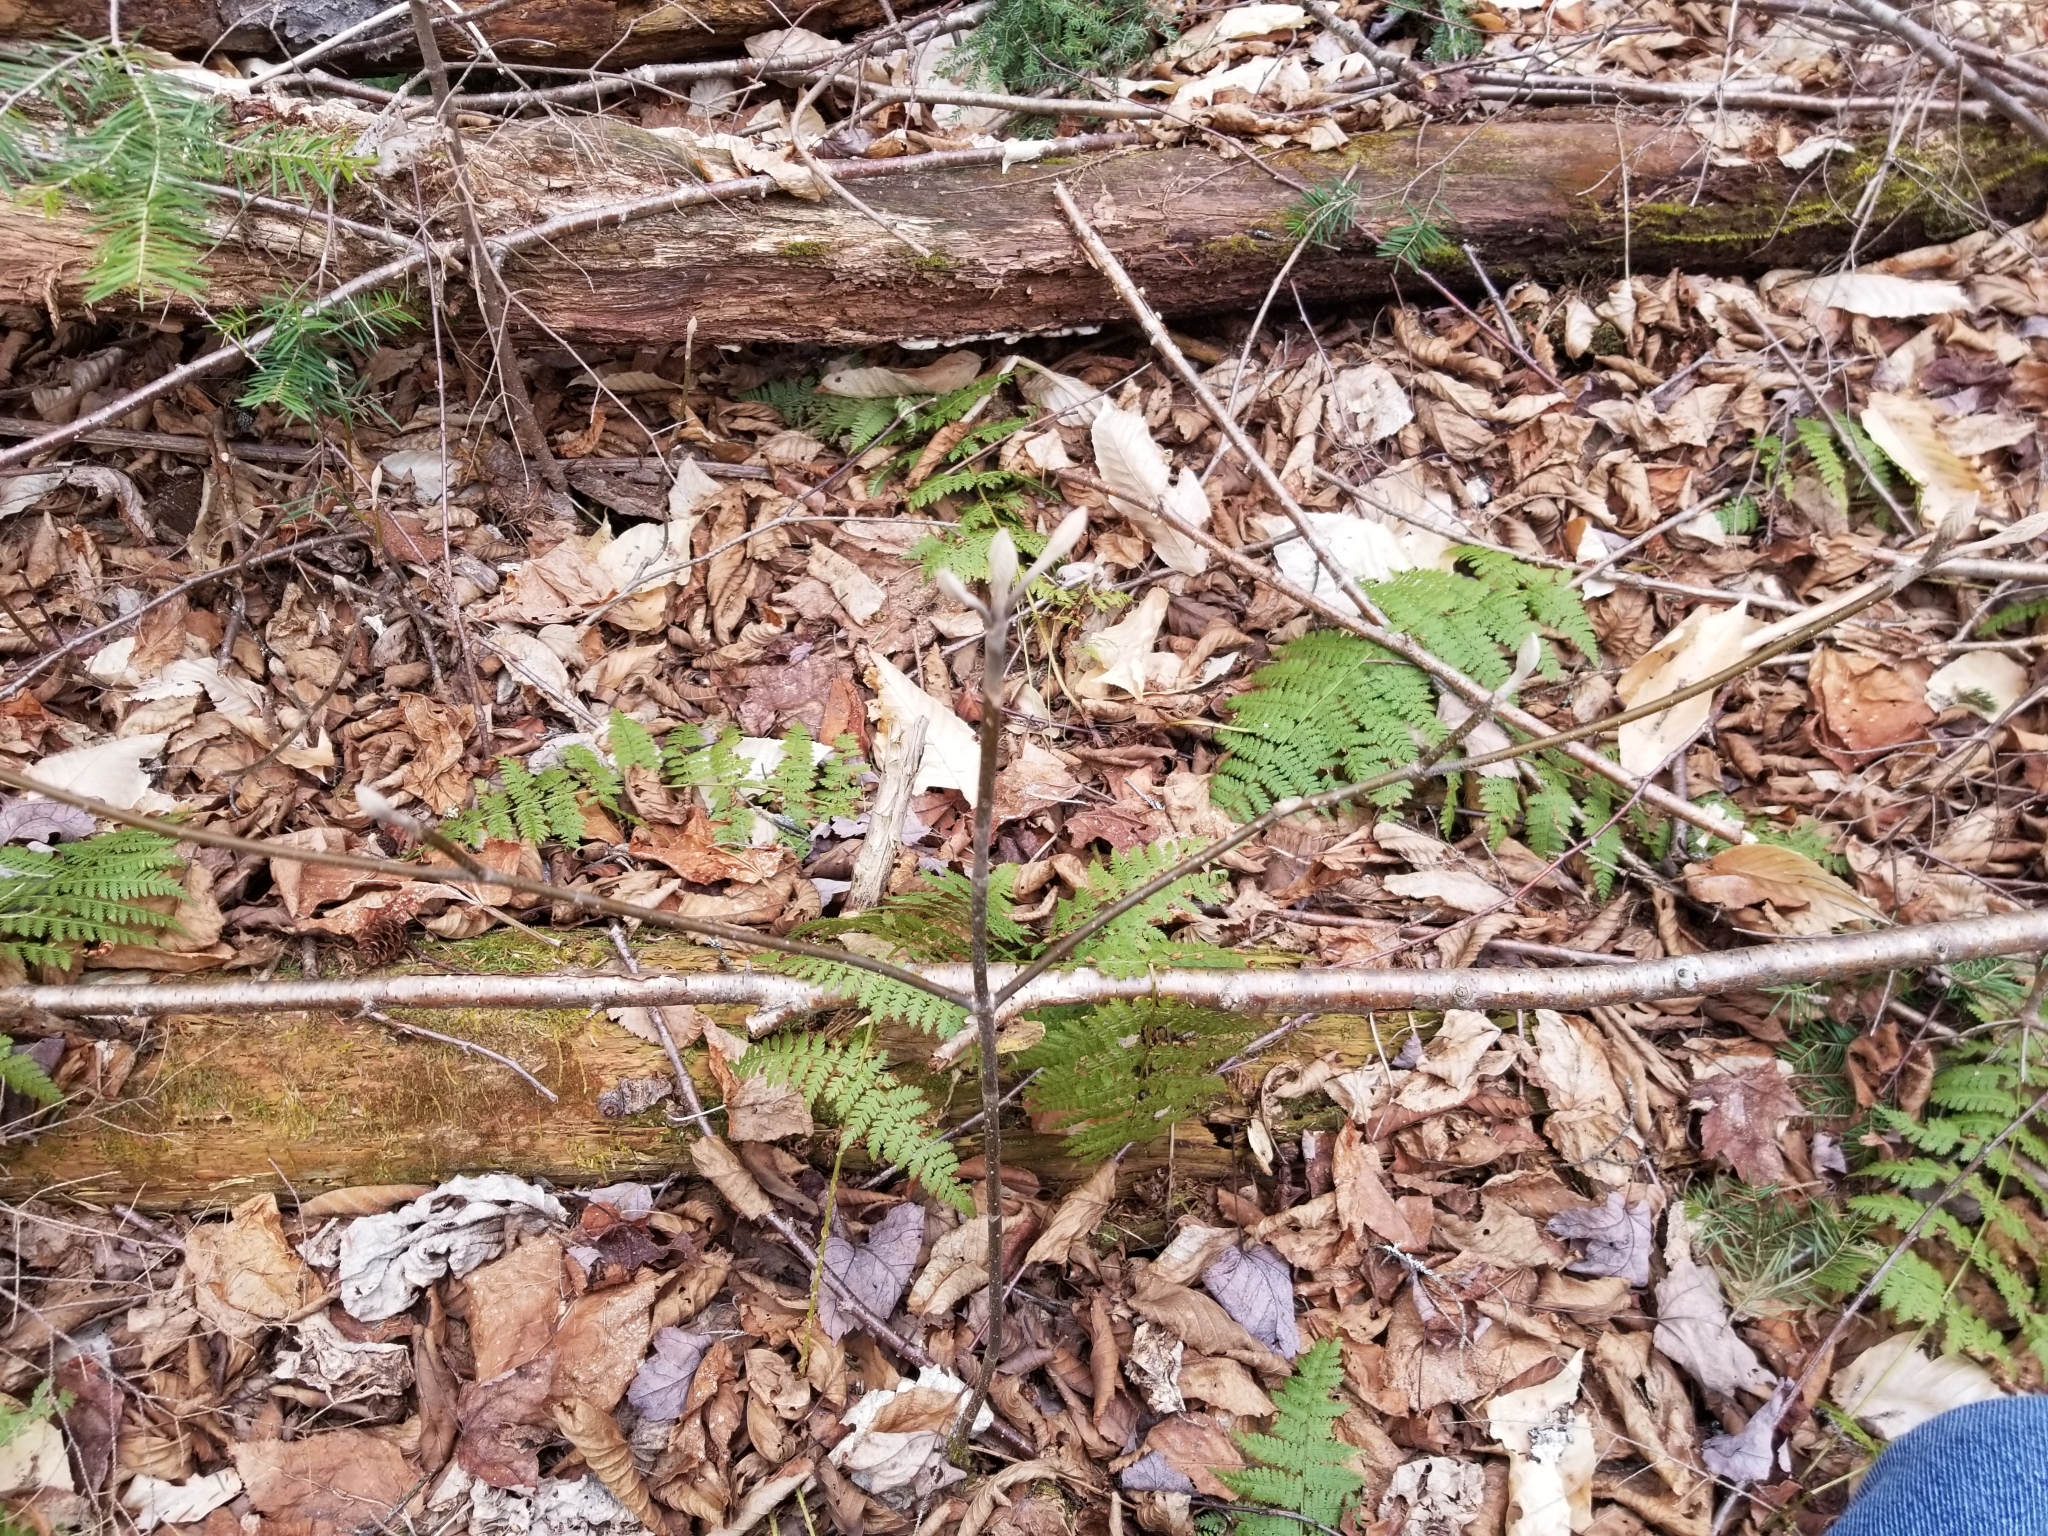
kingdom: Plantae
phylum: Tracheophyta
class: Magnoliopsida
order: Dipsacales
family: Viburnaceae
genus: Viburnum
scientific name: Viburnum lantanoides
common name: Hobblebush
